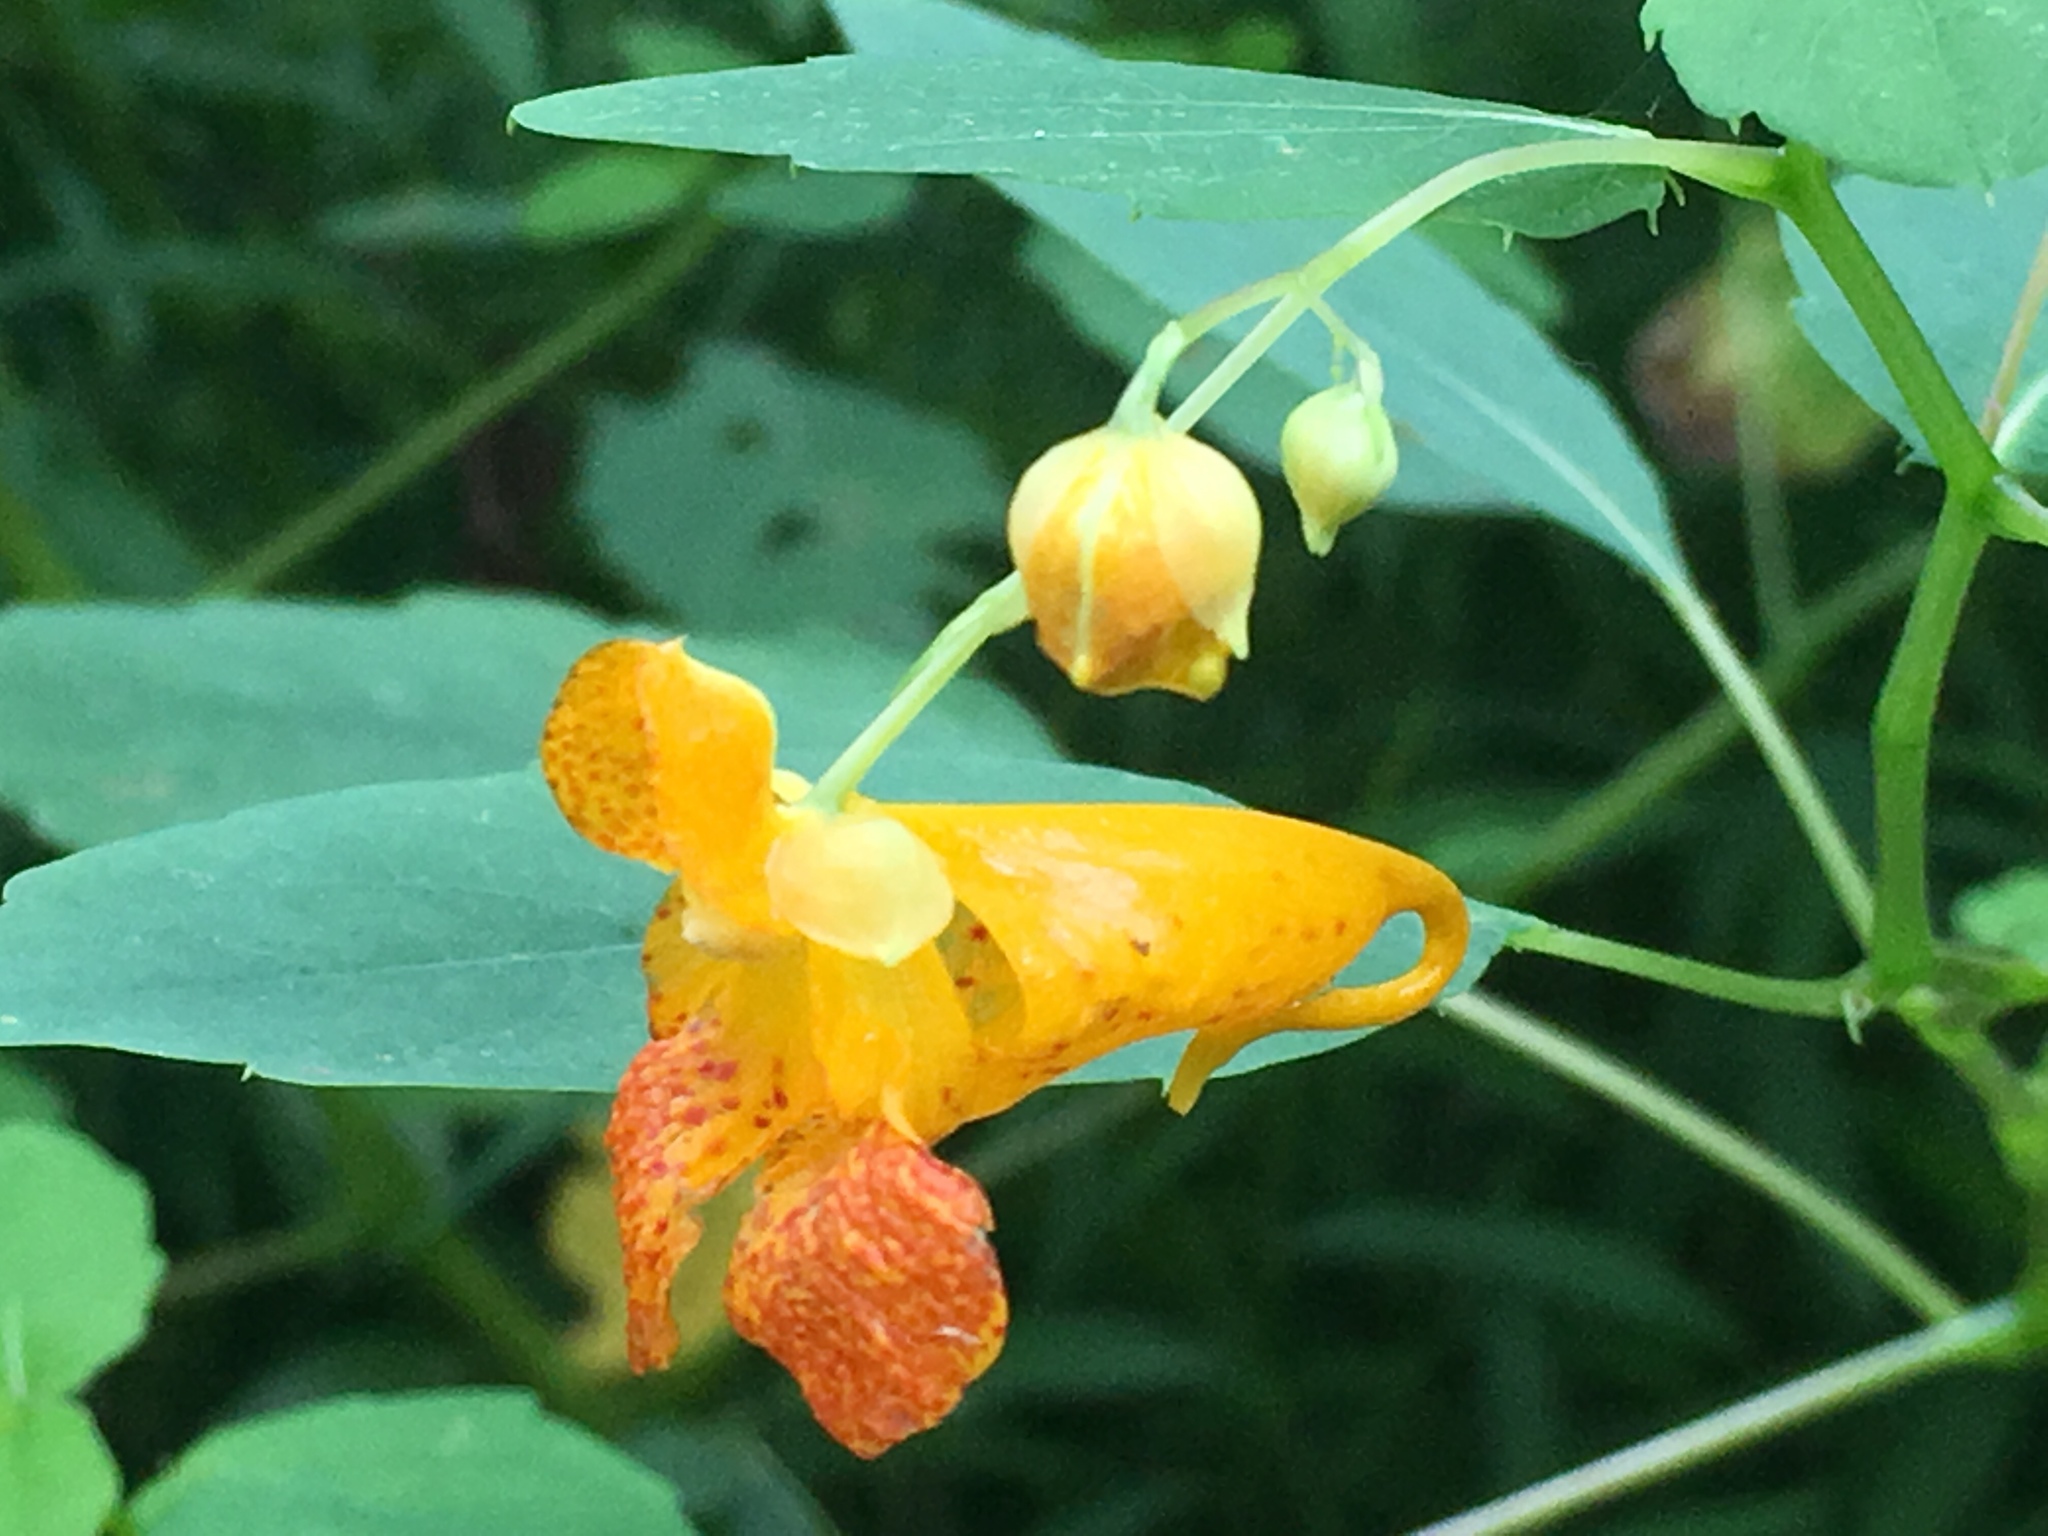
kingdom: Plantae
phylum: Tracheophyta
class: Magnoliopsida
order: Ericales
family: Balsaminaceae
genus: Impatiens
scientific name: Impatiens capensis
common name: Orange balsam
